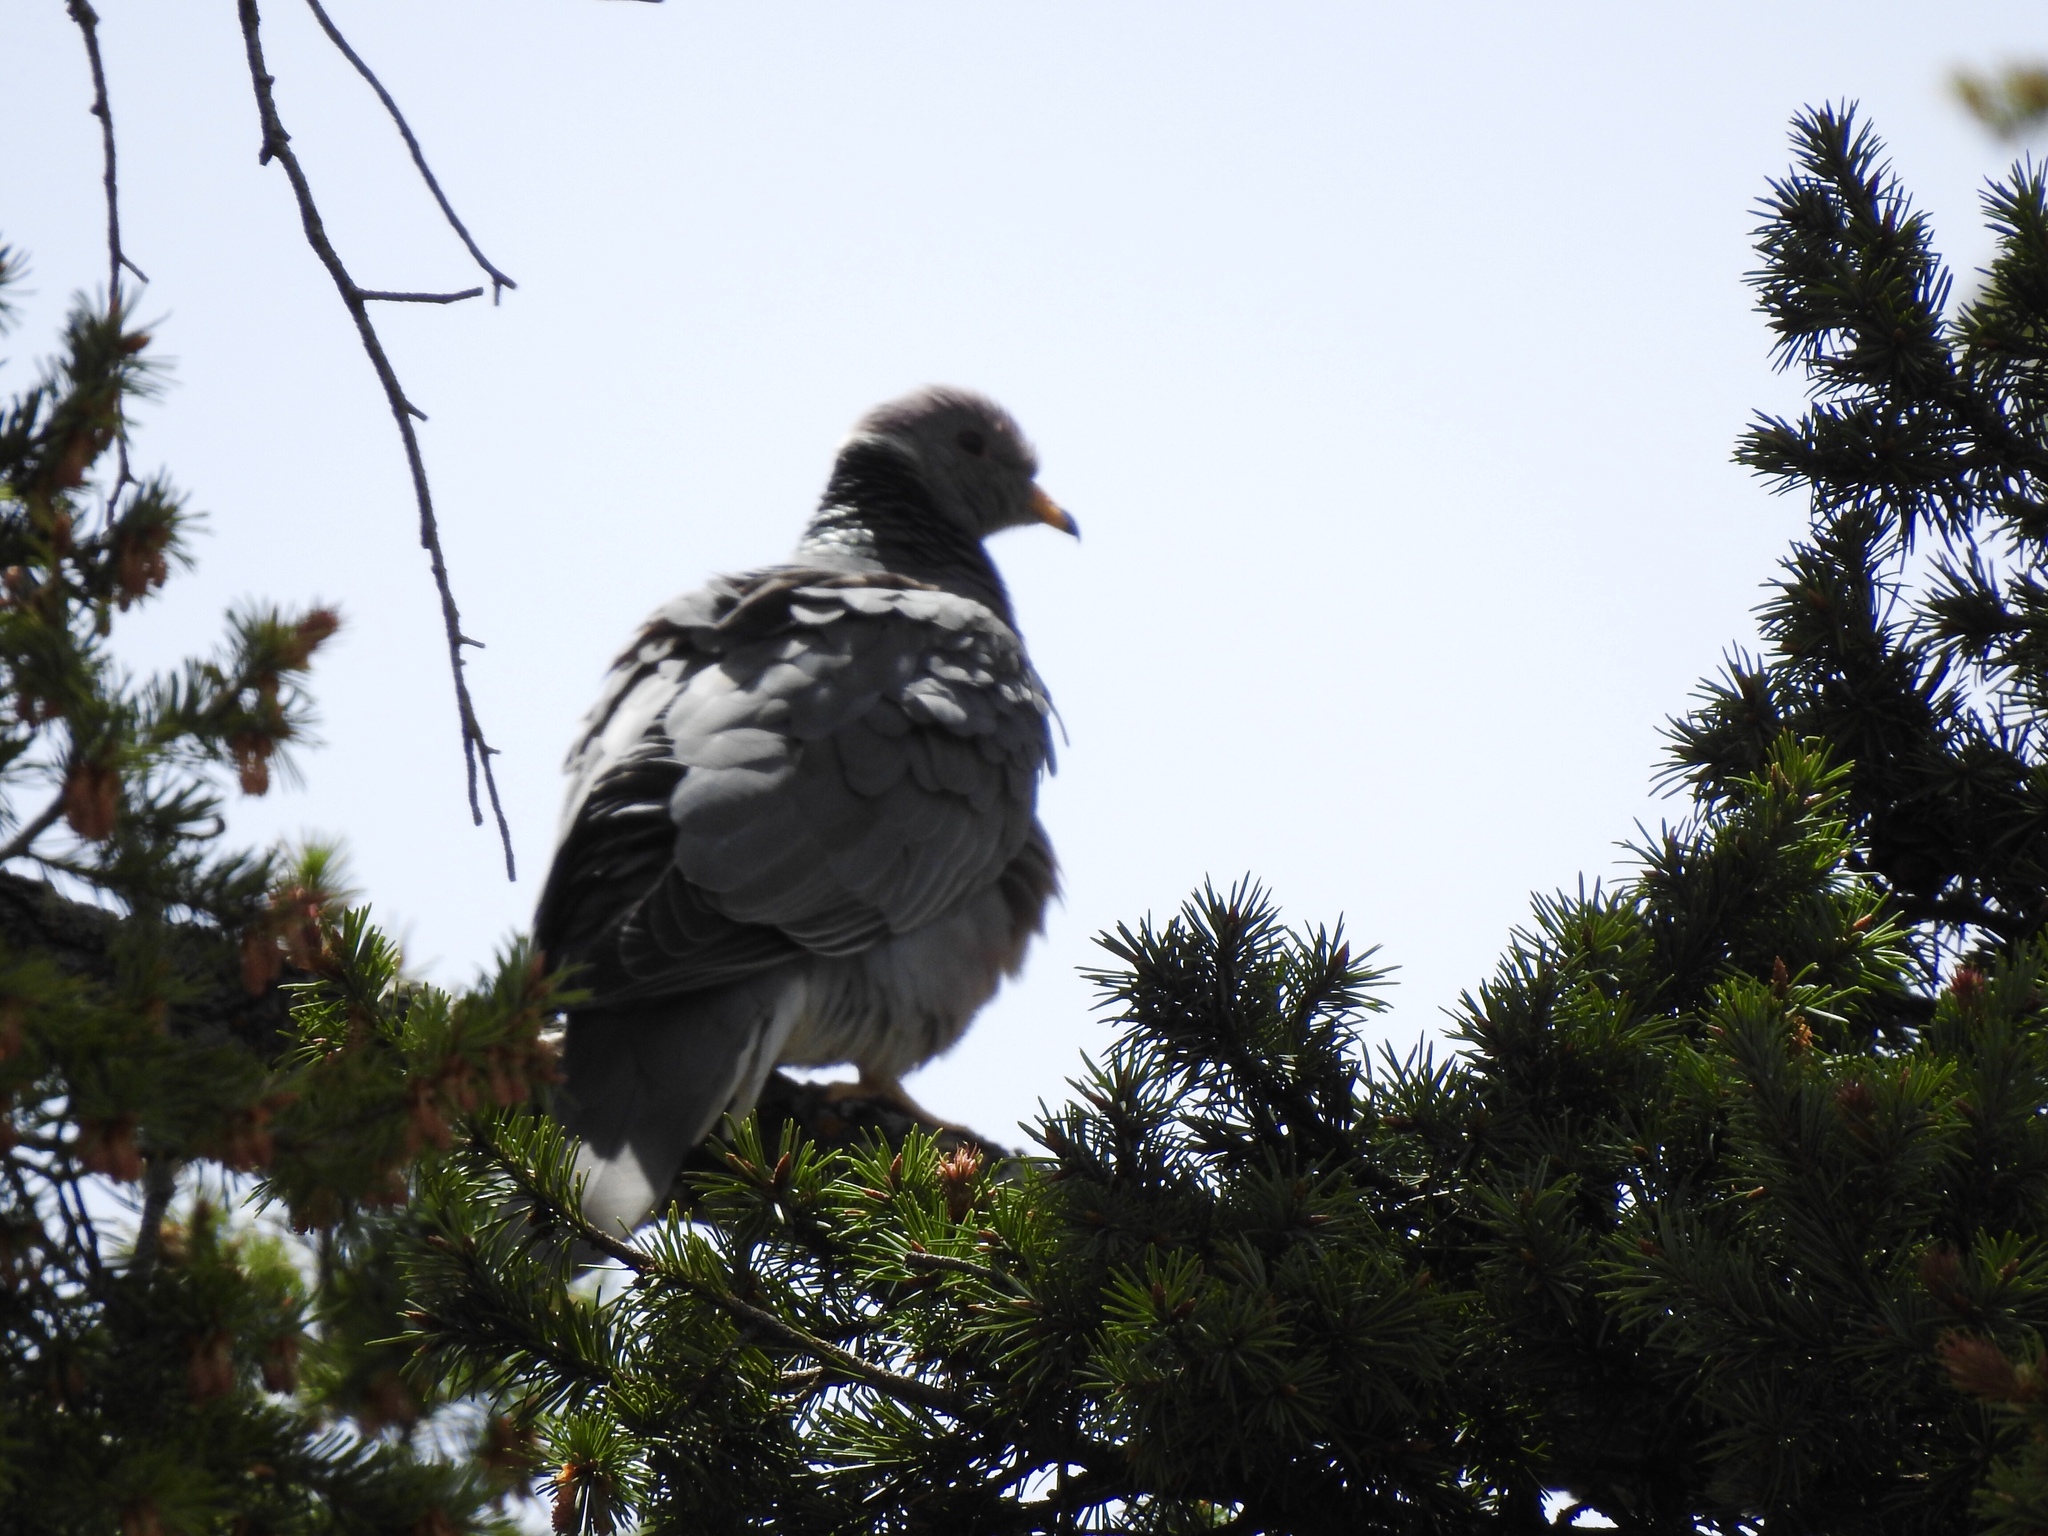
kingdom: Animalia
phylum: Chordata
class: Aves
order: Columbiformes
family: Columbidae
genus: Patagioenas
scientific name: Patagioenas fasciata
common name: Band-tailed pigeon
